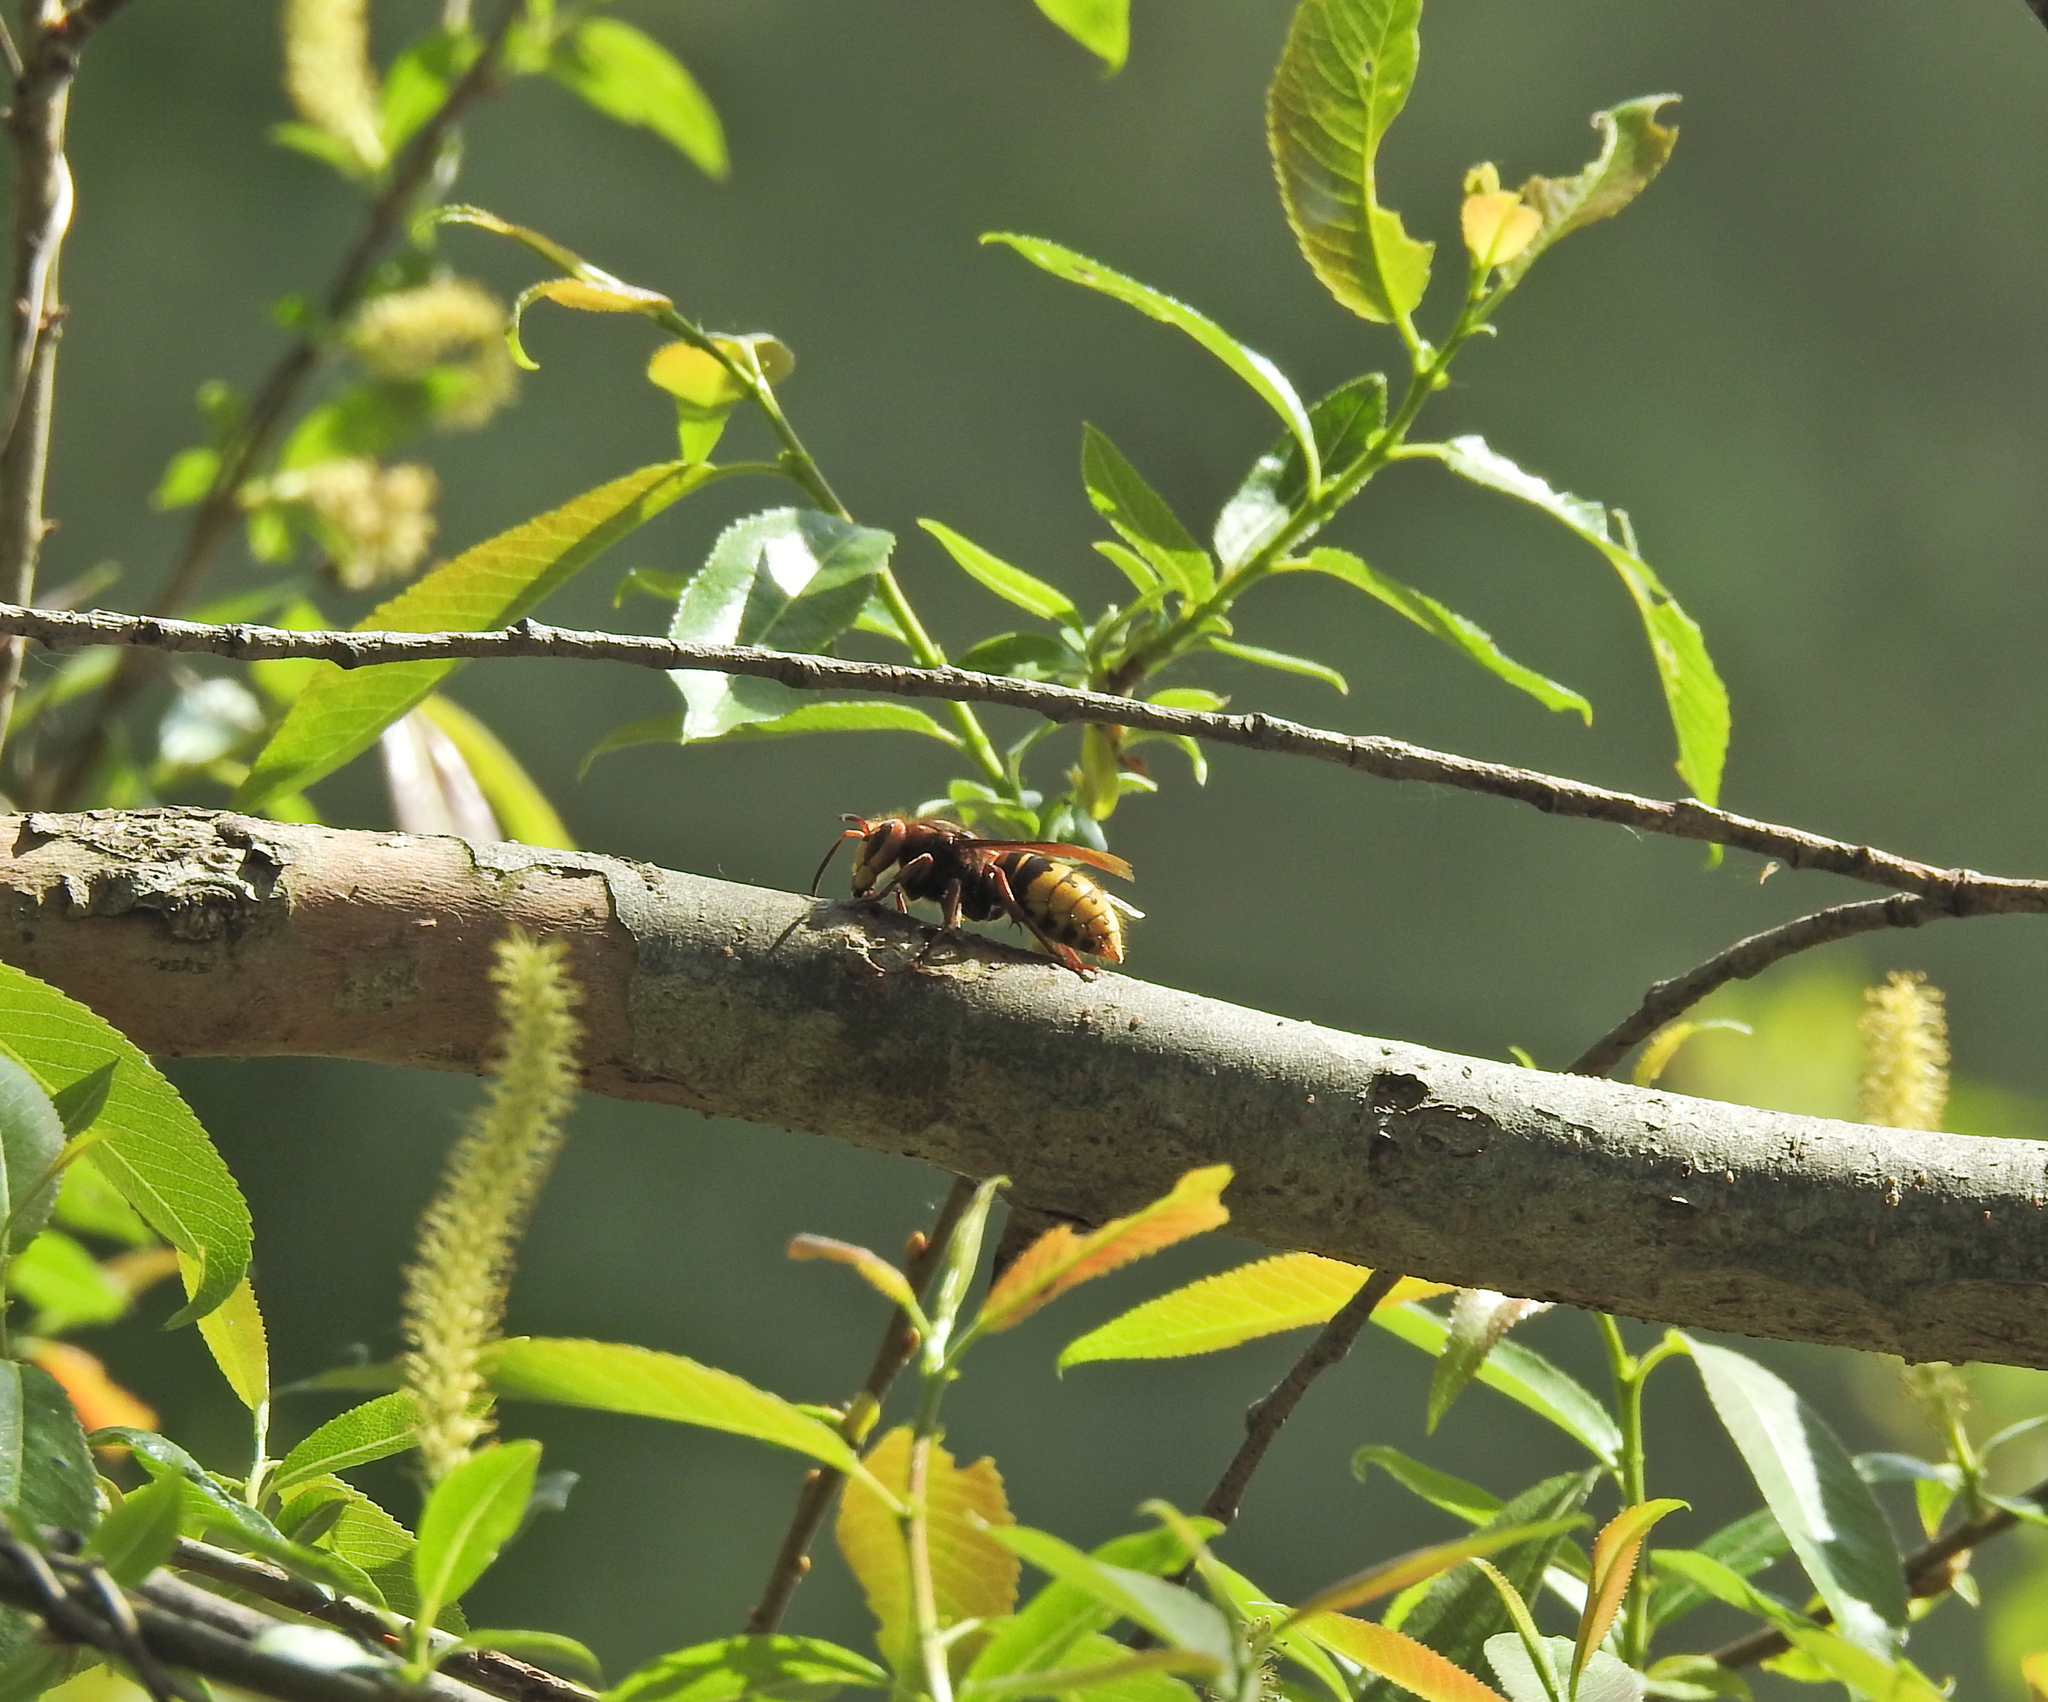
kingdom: Animalia
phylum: Arthropoda
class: Insecta
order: Hymenoptera
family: Vespidae
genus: Vespa
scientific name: Vespa crabro
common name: Hornet
